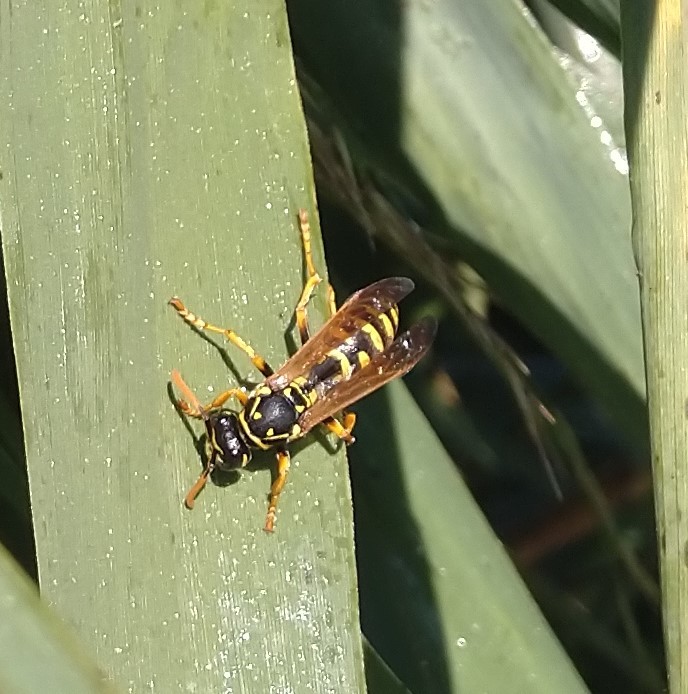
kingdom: Animalia
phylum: Arthropoda
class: Insecta
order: Hymenoptera
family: Eumenidae
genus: Polistes
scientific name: Polistes dominula
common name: Paper wasp
